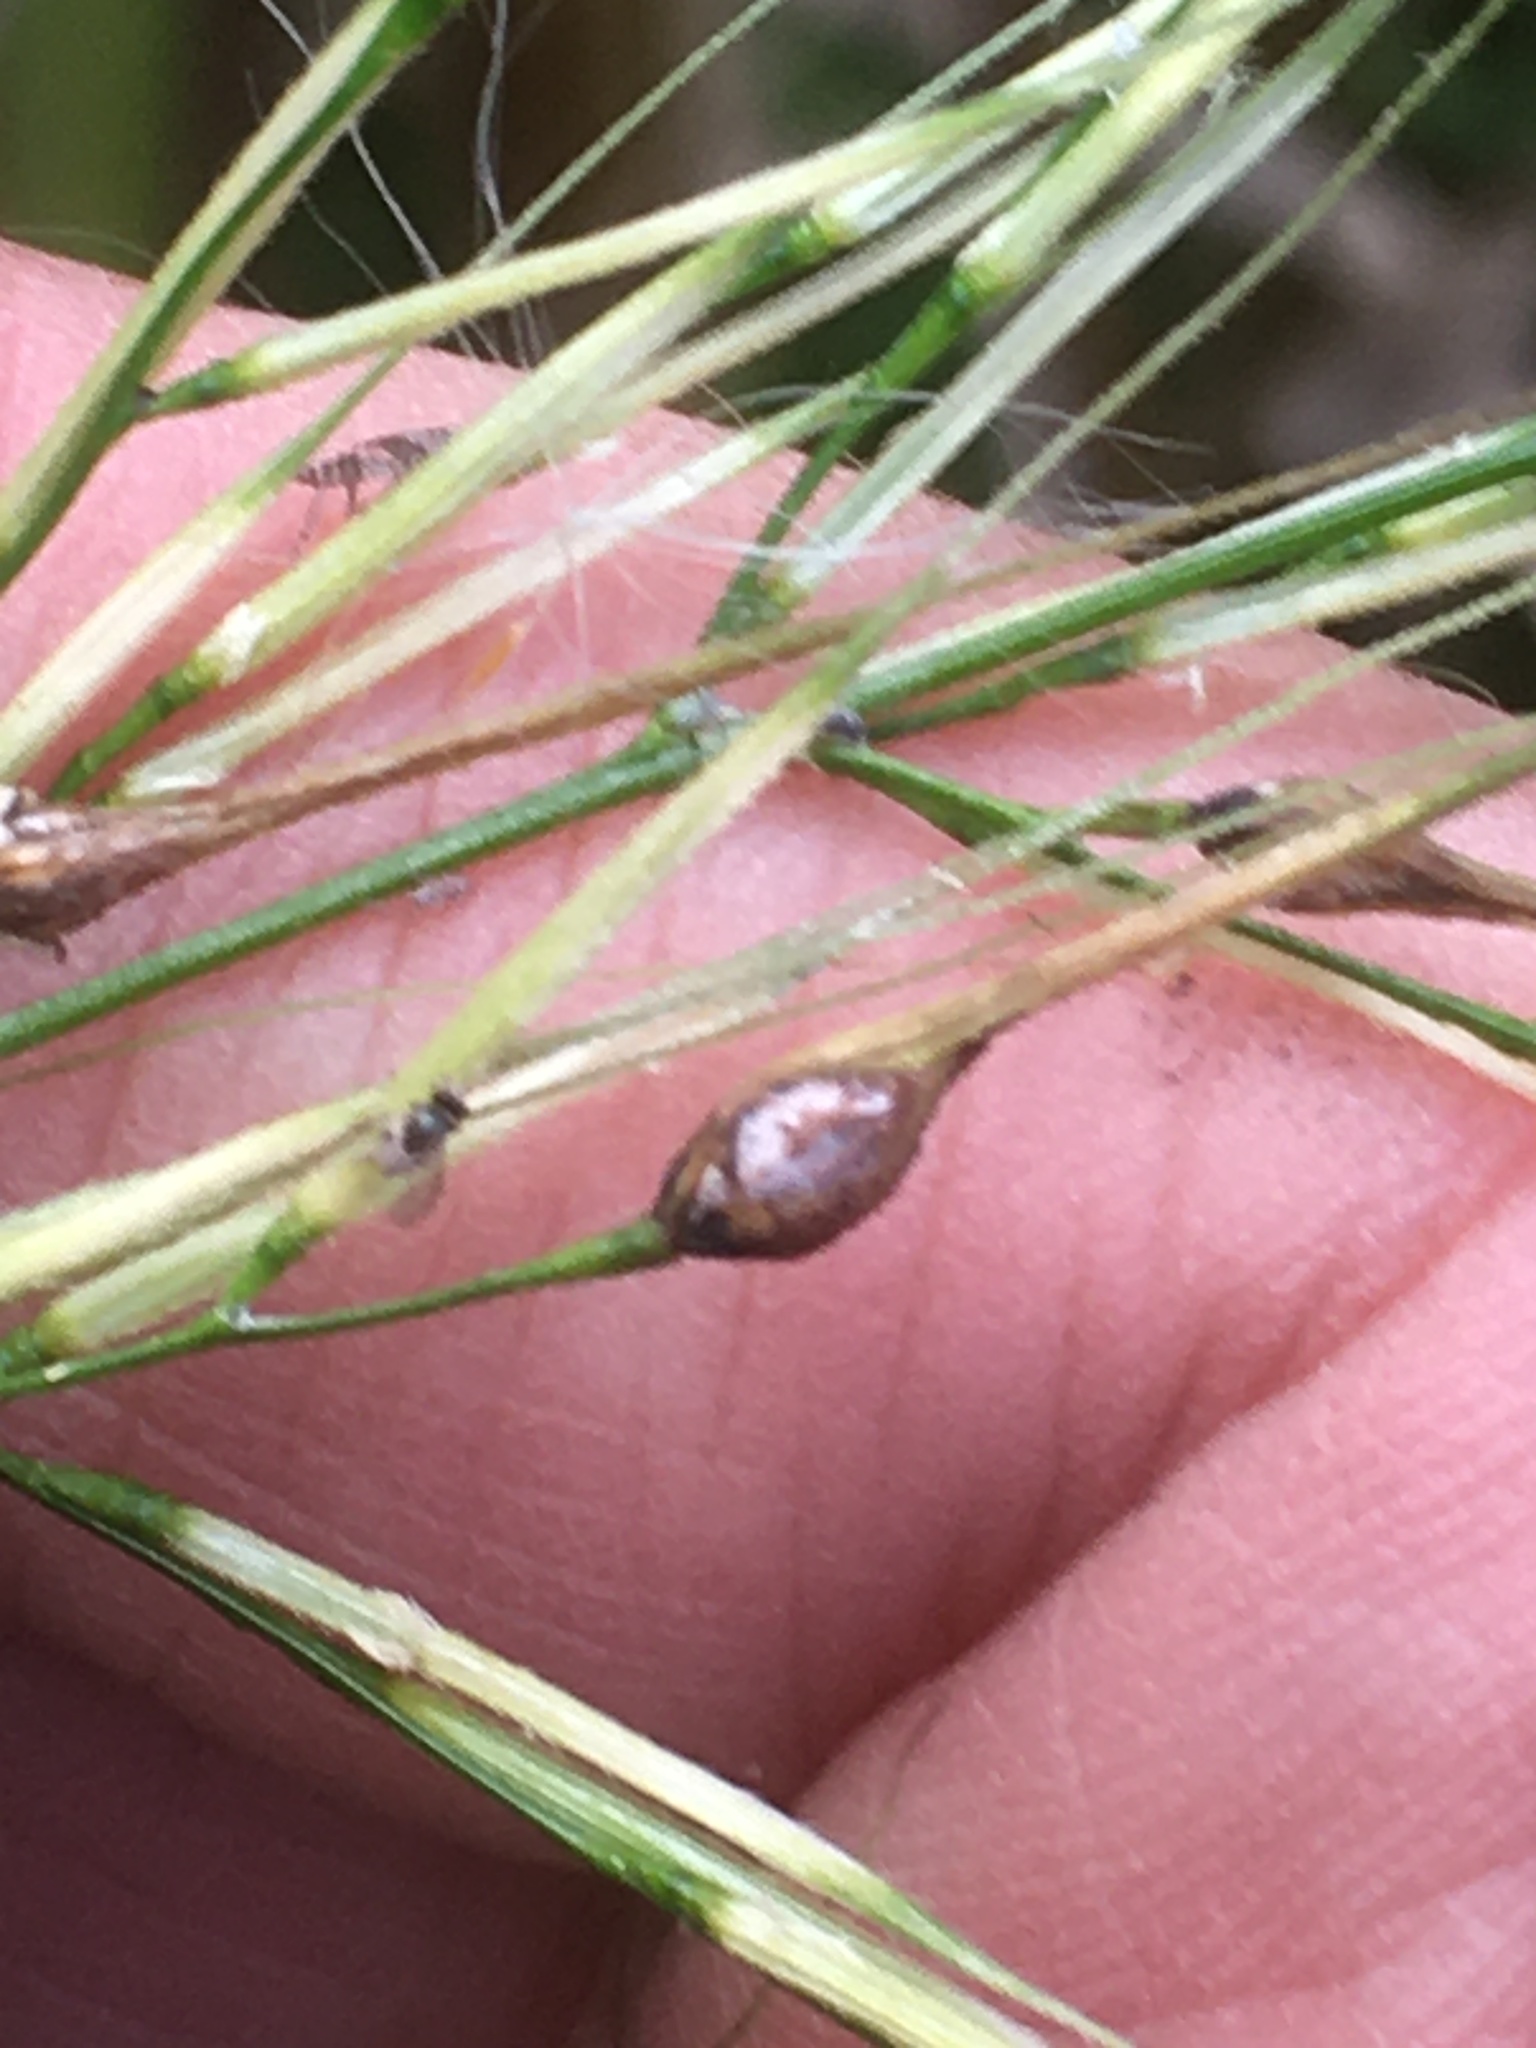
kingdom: Fungi
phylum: Ascomycota
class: Sordariomycetes
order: Hypocreales
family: Clavicipitaceae
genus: Claviceps
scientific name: Claviceps zizaniae
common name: Wildrice ergot
